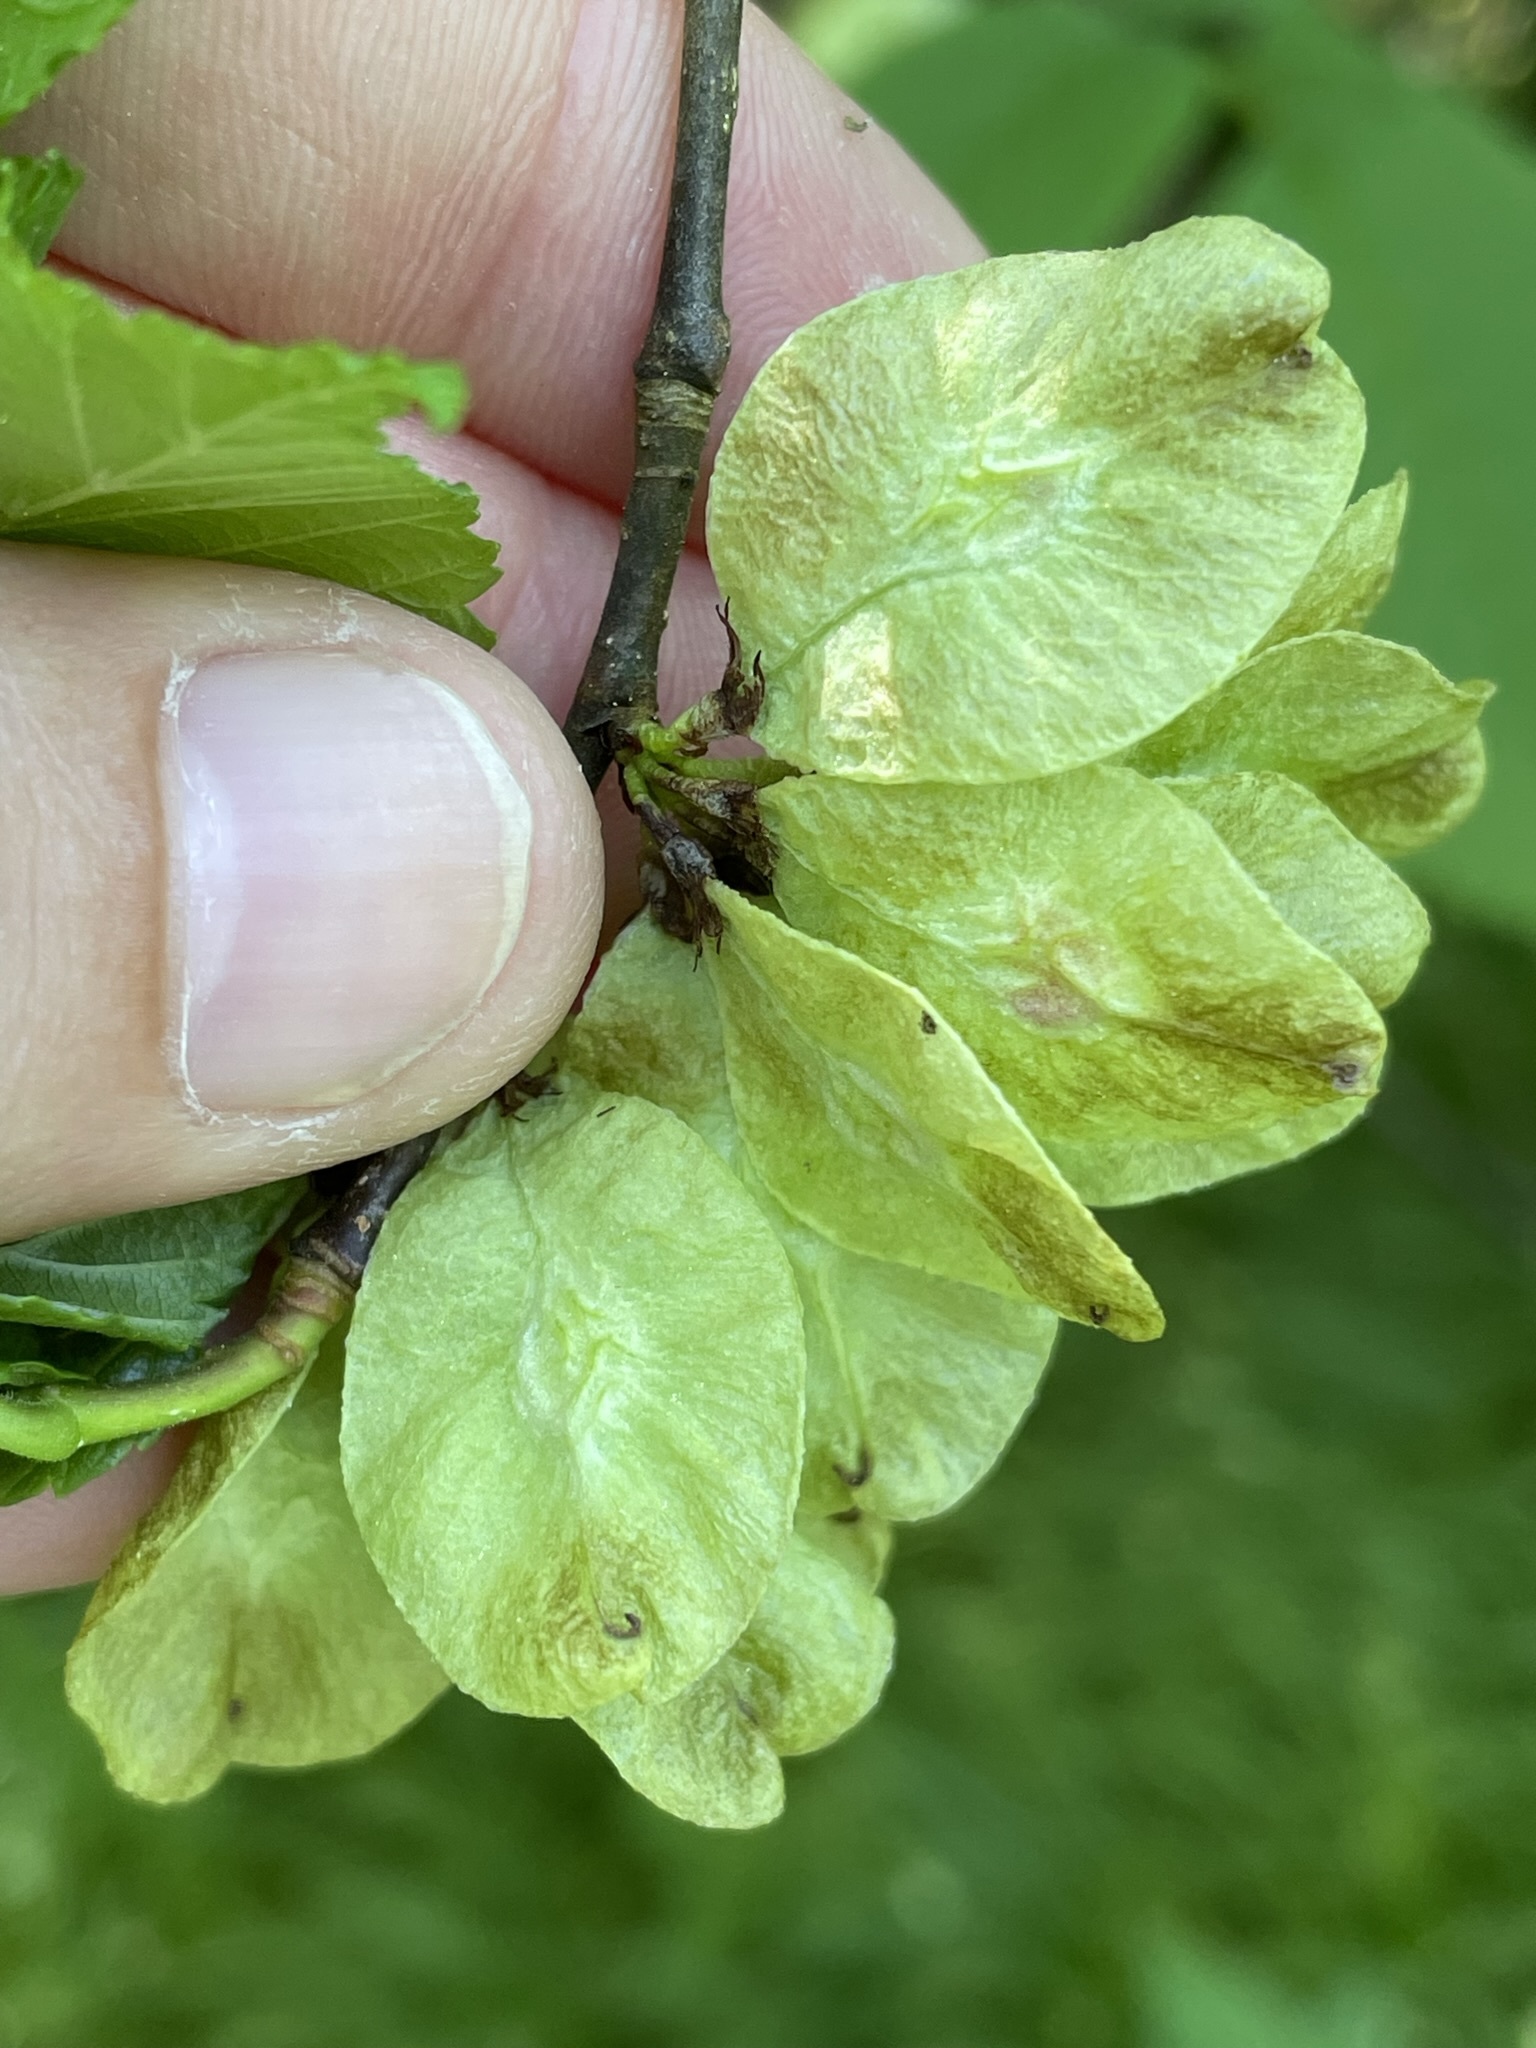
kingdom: Plantae
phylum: Tracheophyta
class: Magnoliopsida
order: Rosales
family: Ulmaceae
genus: Ulmus
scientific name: Ulmus glabra
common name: Wych elm
